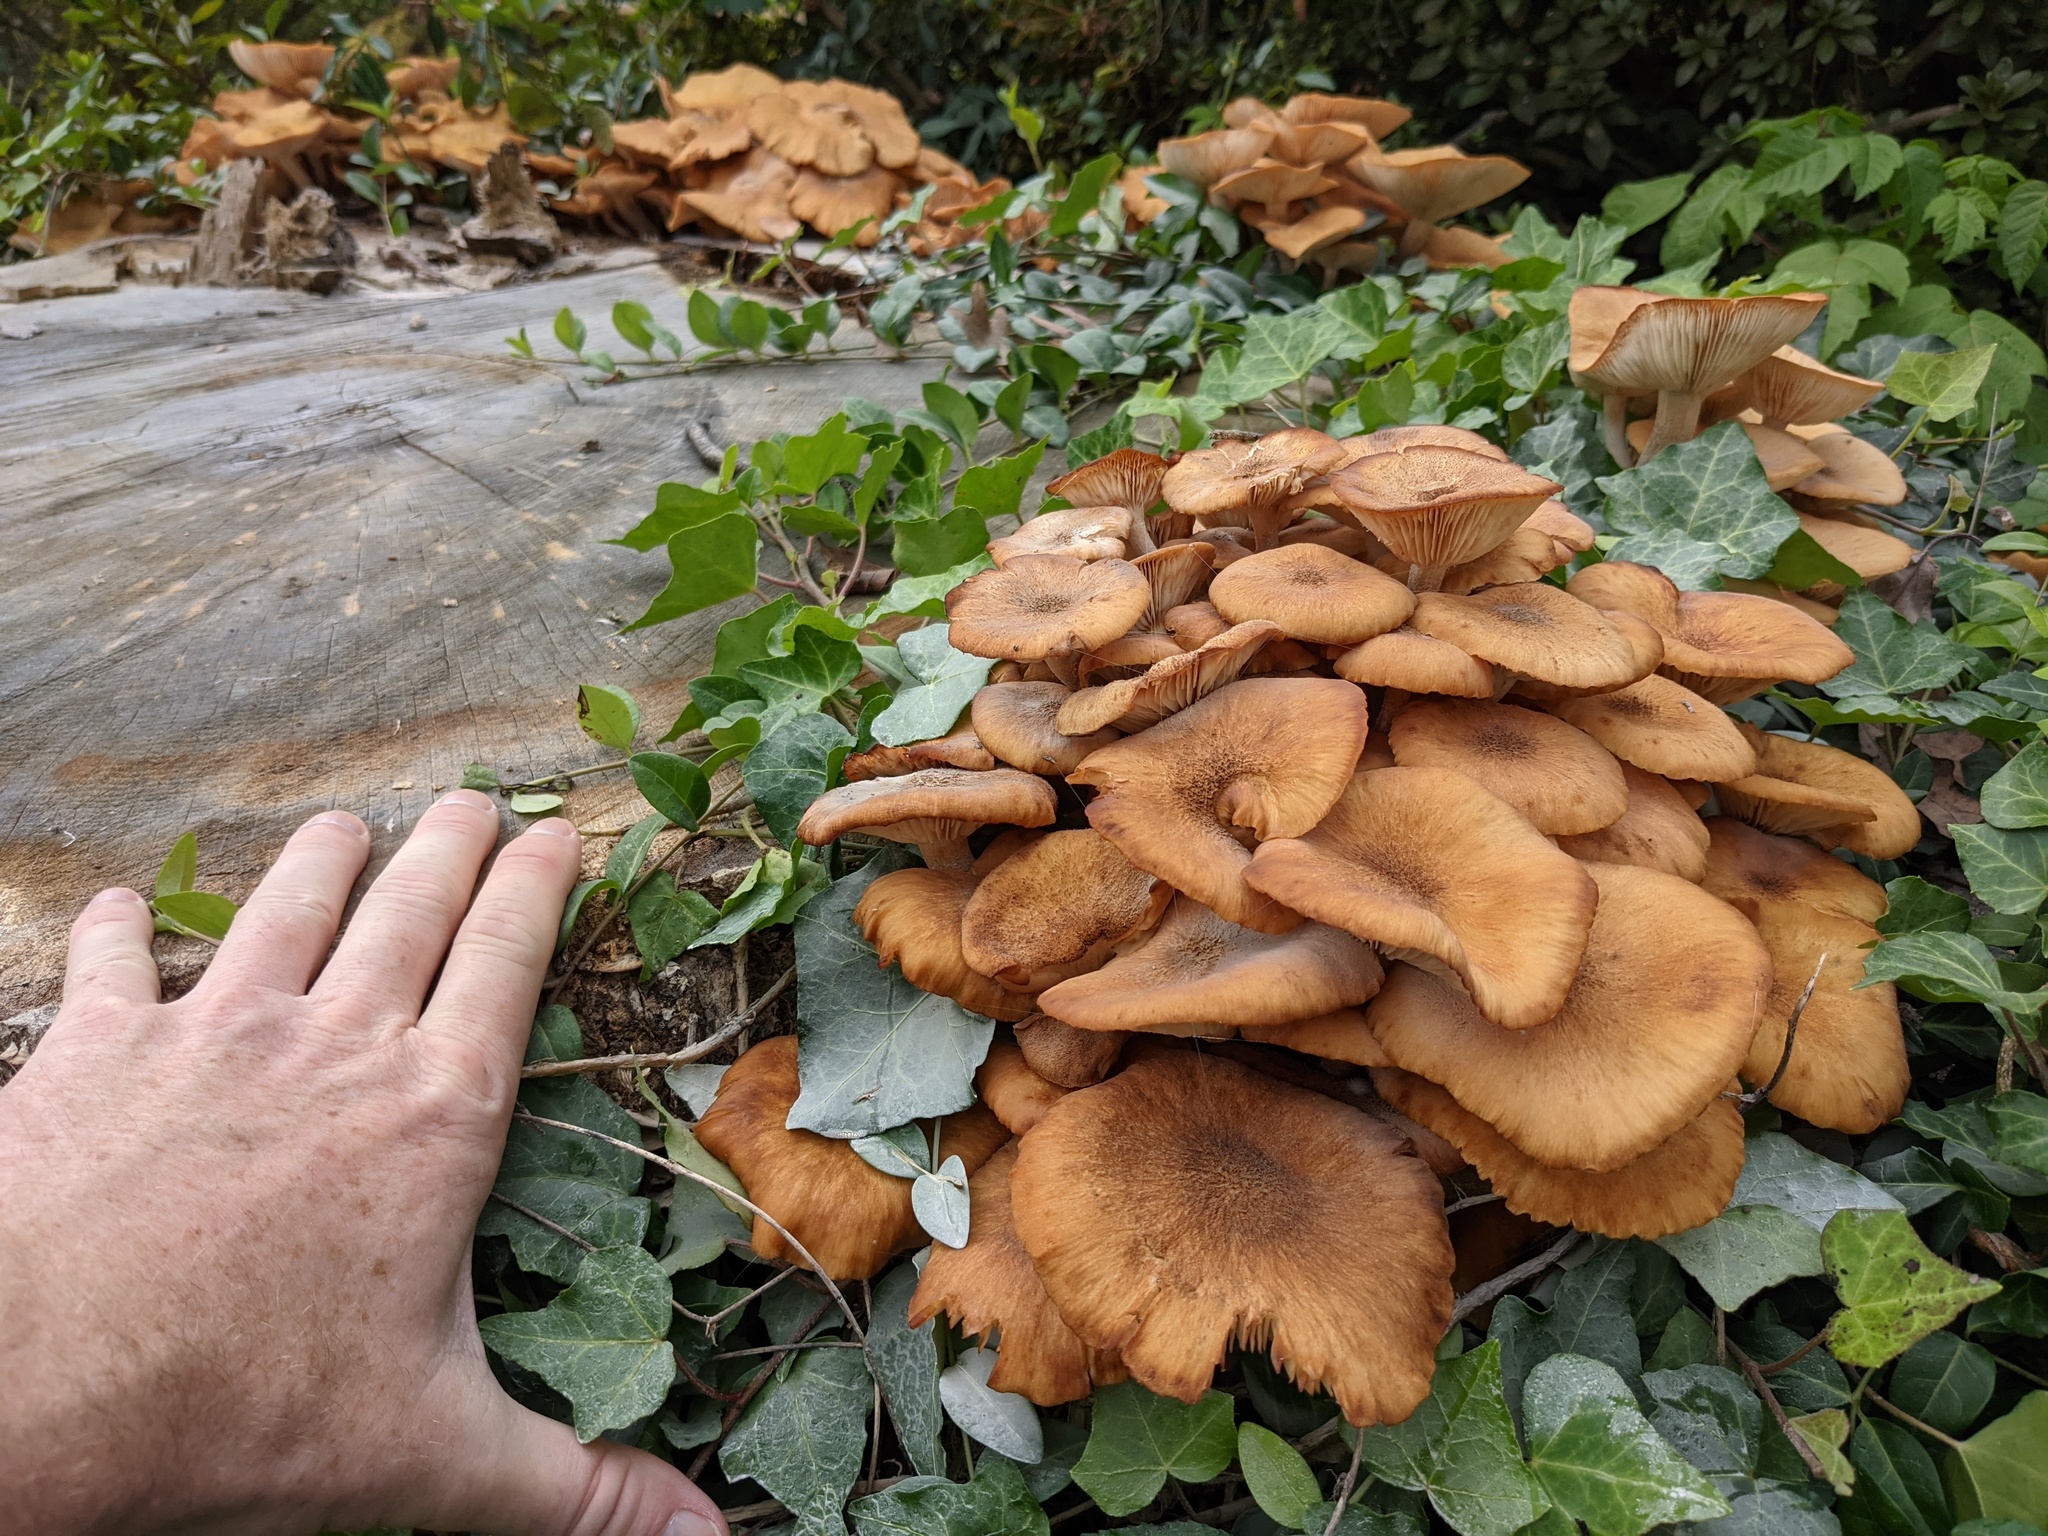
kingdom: Fungi
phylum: Basidiomycota
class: Agaricomycetes
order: Agaricales
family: Physalacriaceae
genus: Desarmillaria
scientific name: Desarmillaria caespitosa
